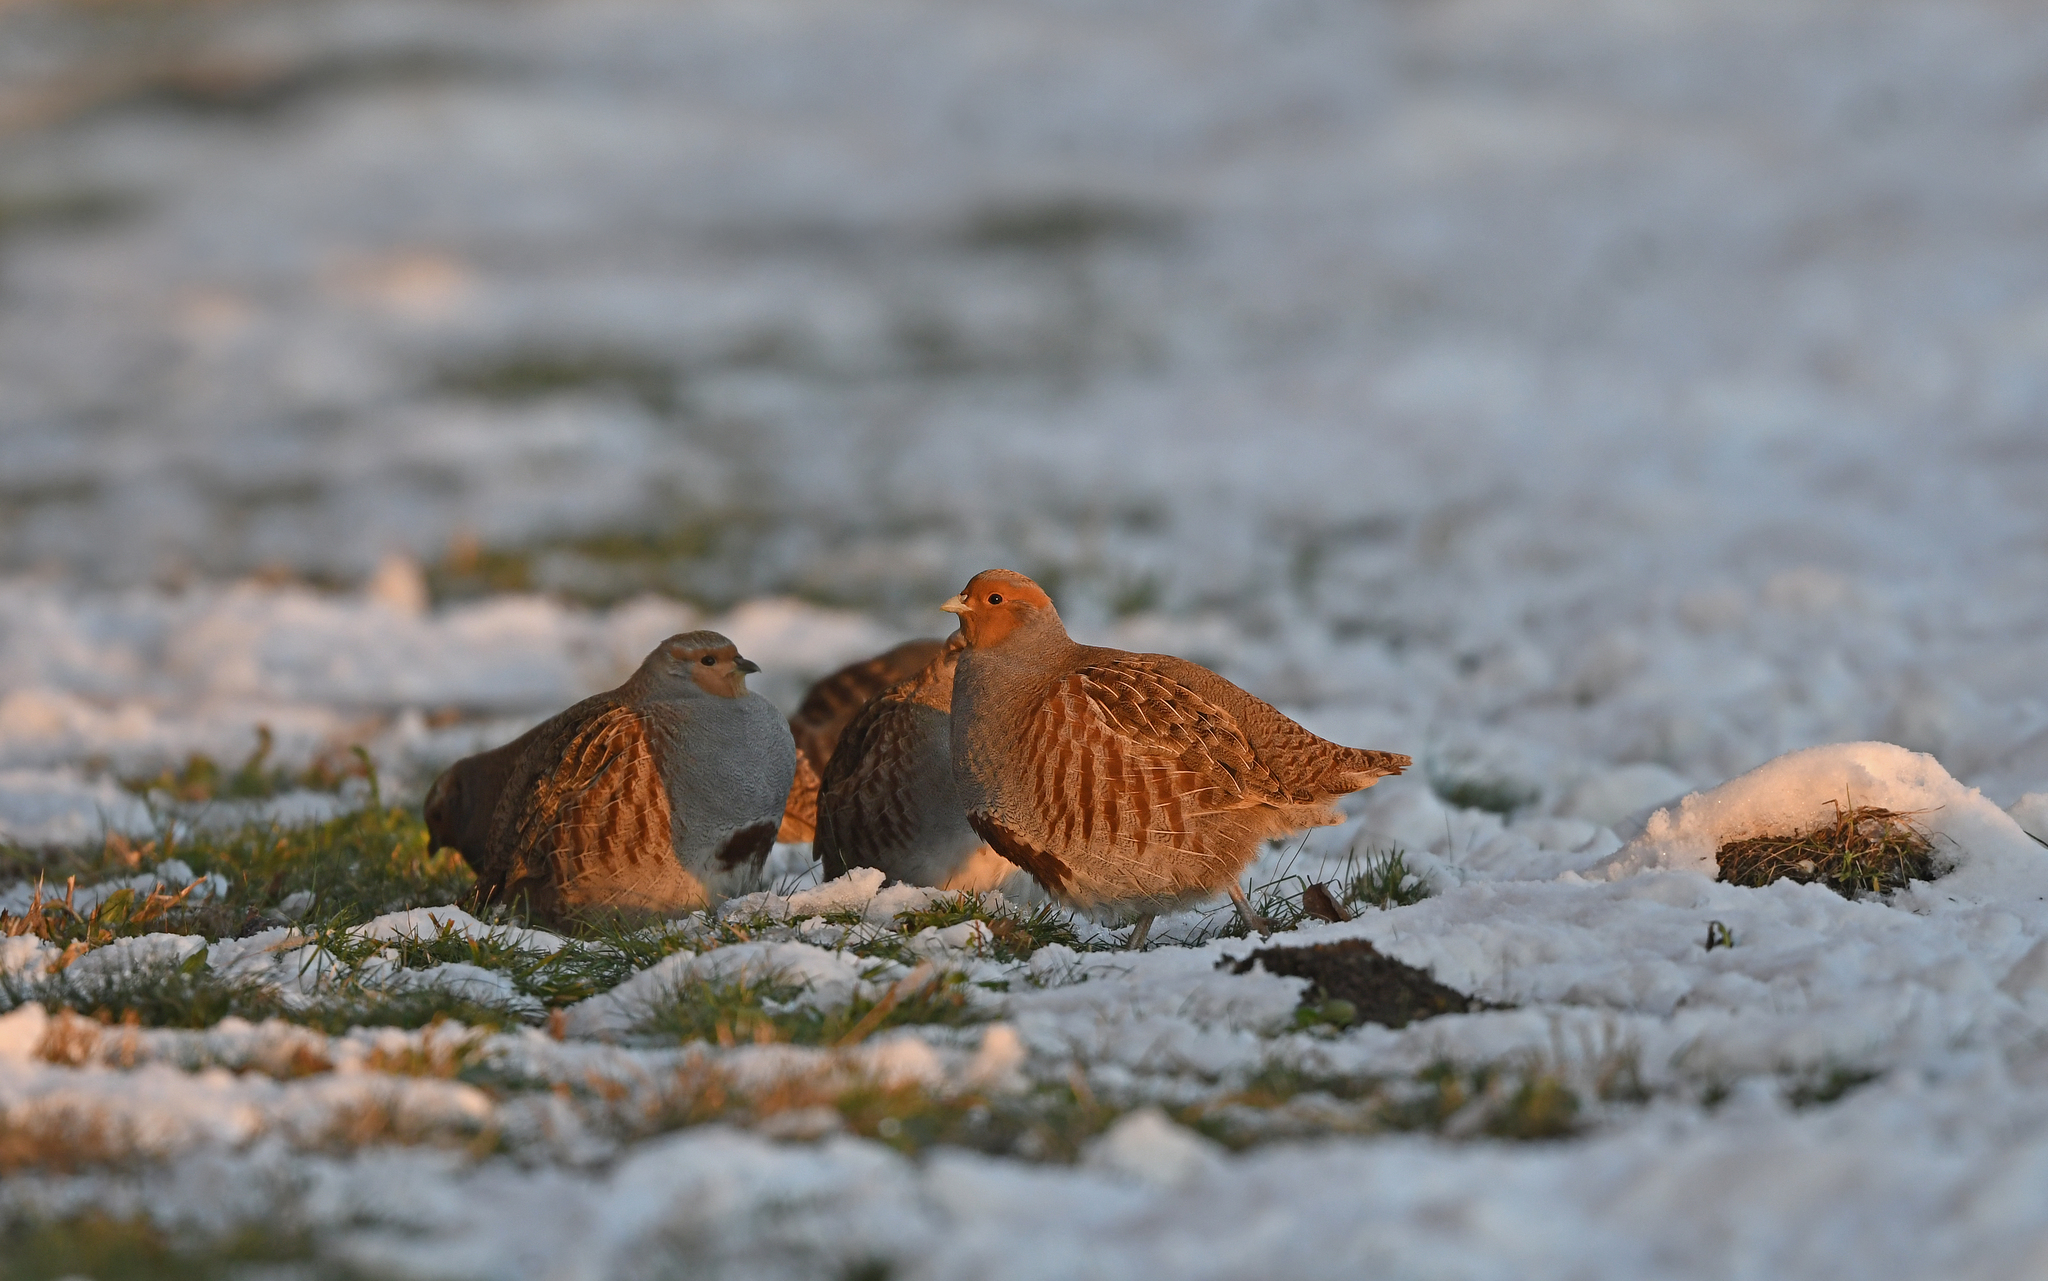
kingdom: Animalia
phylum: Chordata
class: Aves
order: Galliformes
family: Phasianidae
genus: Perdix
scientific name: Perdix perdix
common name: Grey partridge
